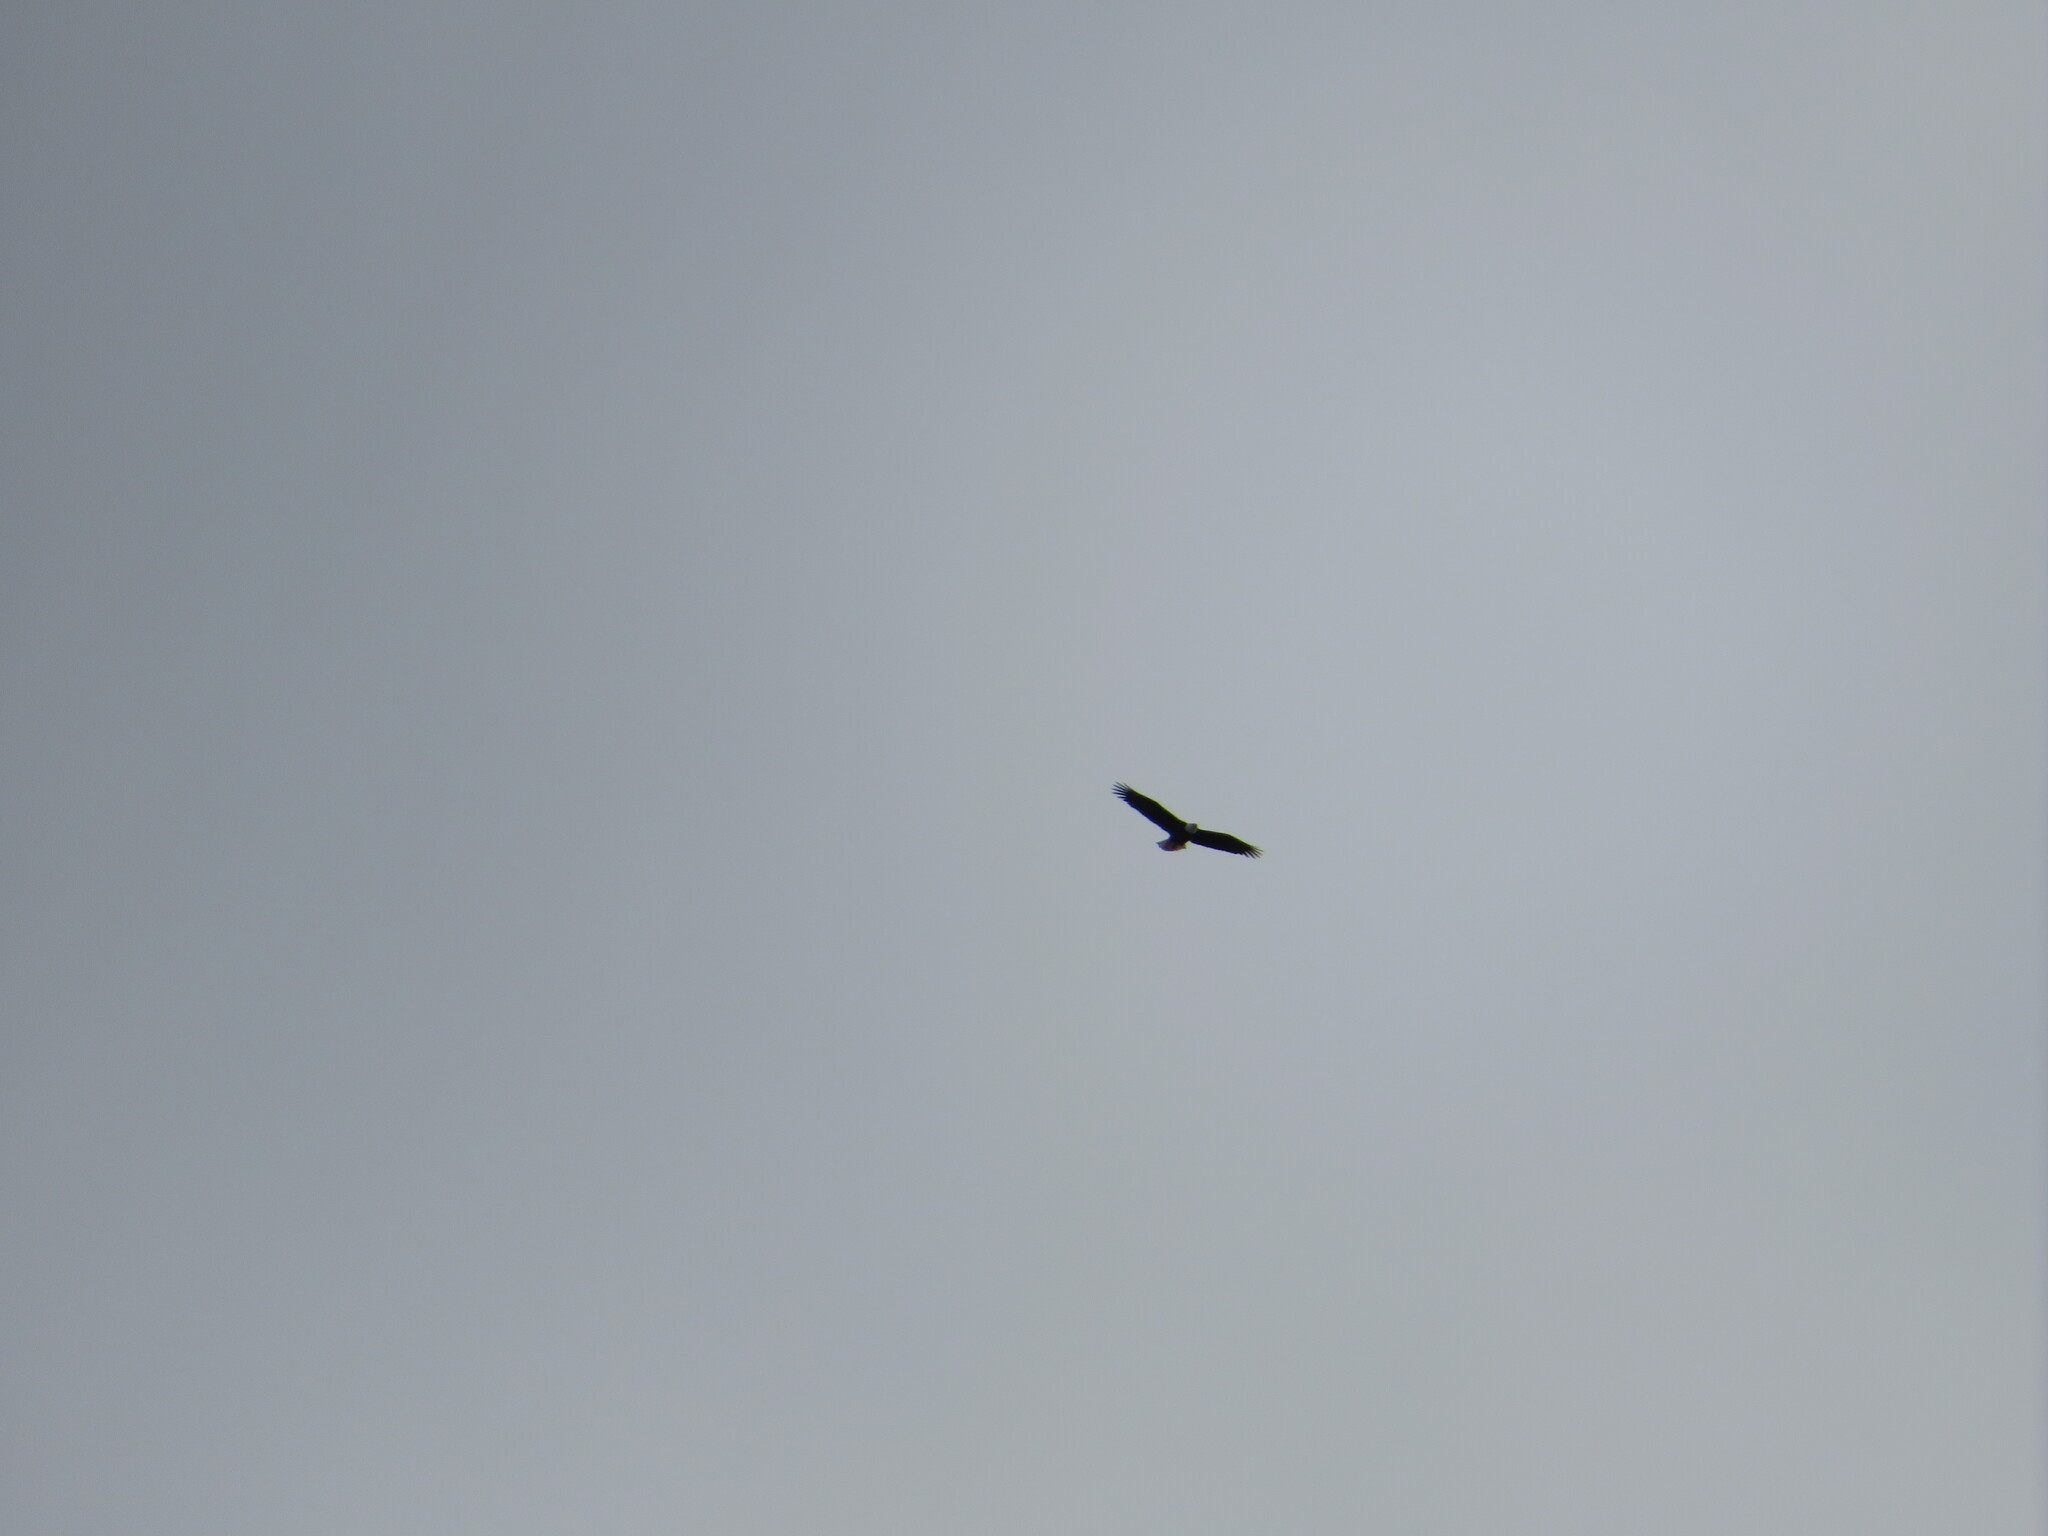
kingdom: Animalia
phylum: Chordata
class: Aves
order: Accipitriformes
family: Accipitridae
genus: Haliaeetus
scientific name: Haliaeetus leucocephalus
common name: Bald eagle
